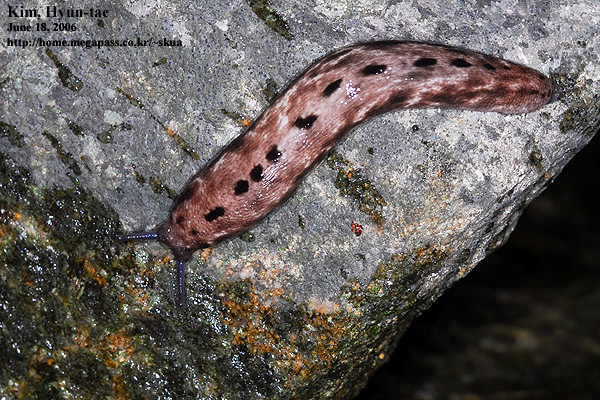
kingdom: Animalia
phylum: Mollusca
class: Gastropoda
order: Stylommatophora
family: Philomycidae
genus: Meghimatium
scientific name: Meghimatium fruhstorferi
